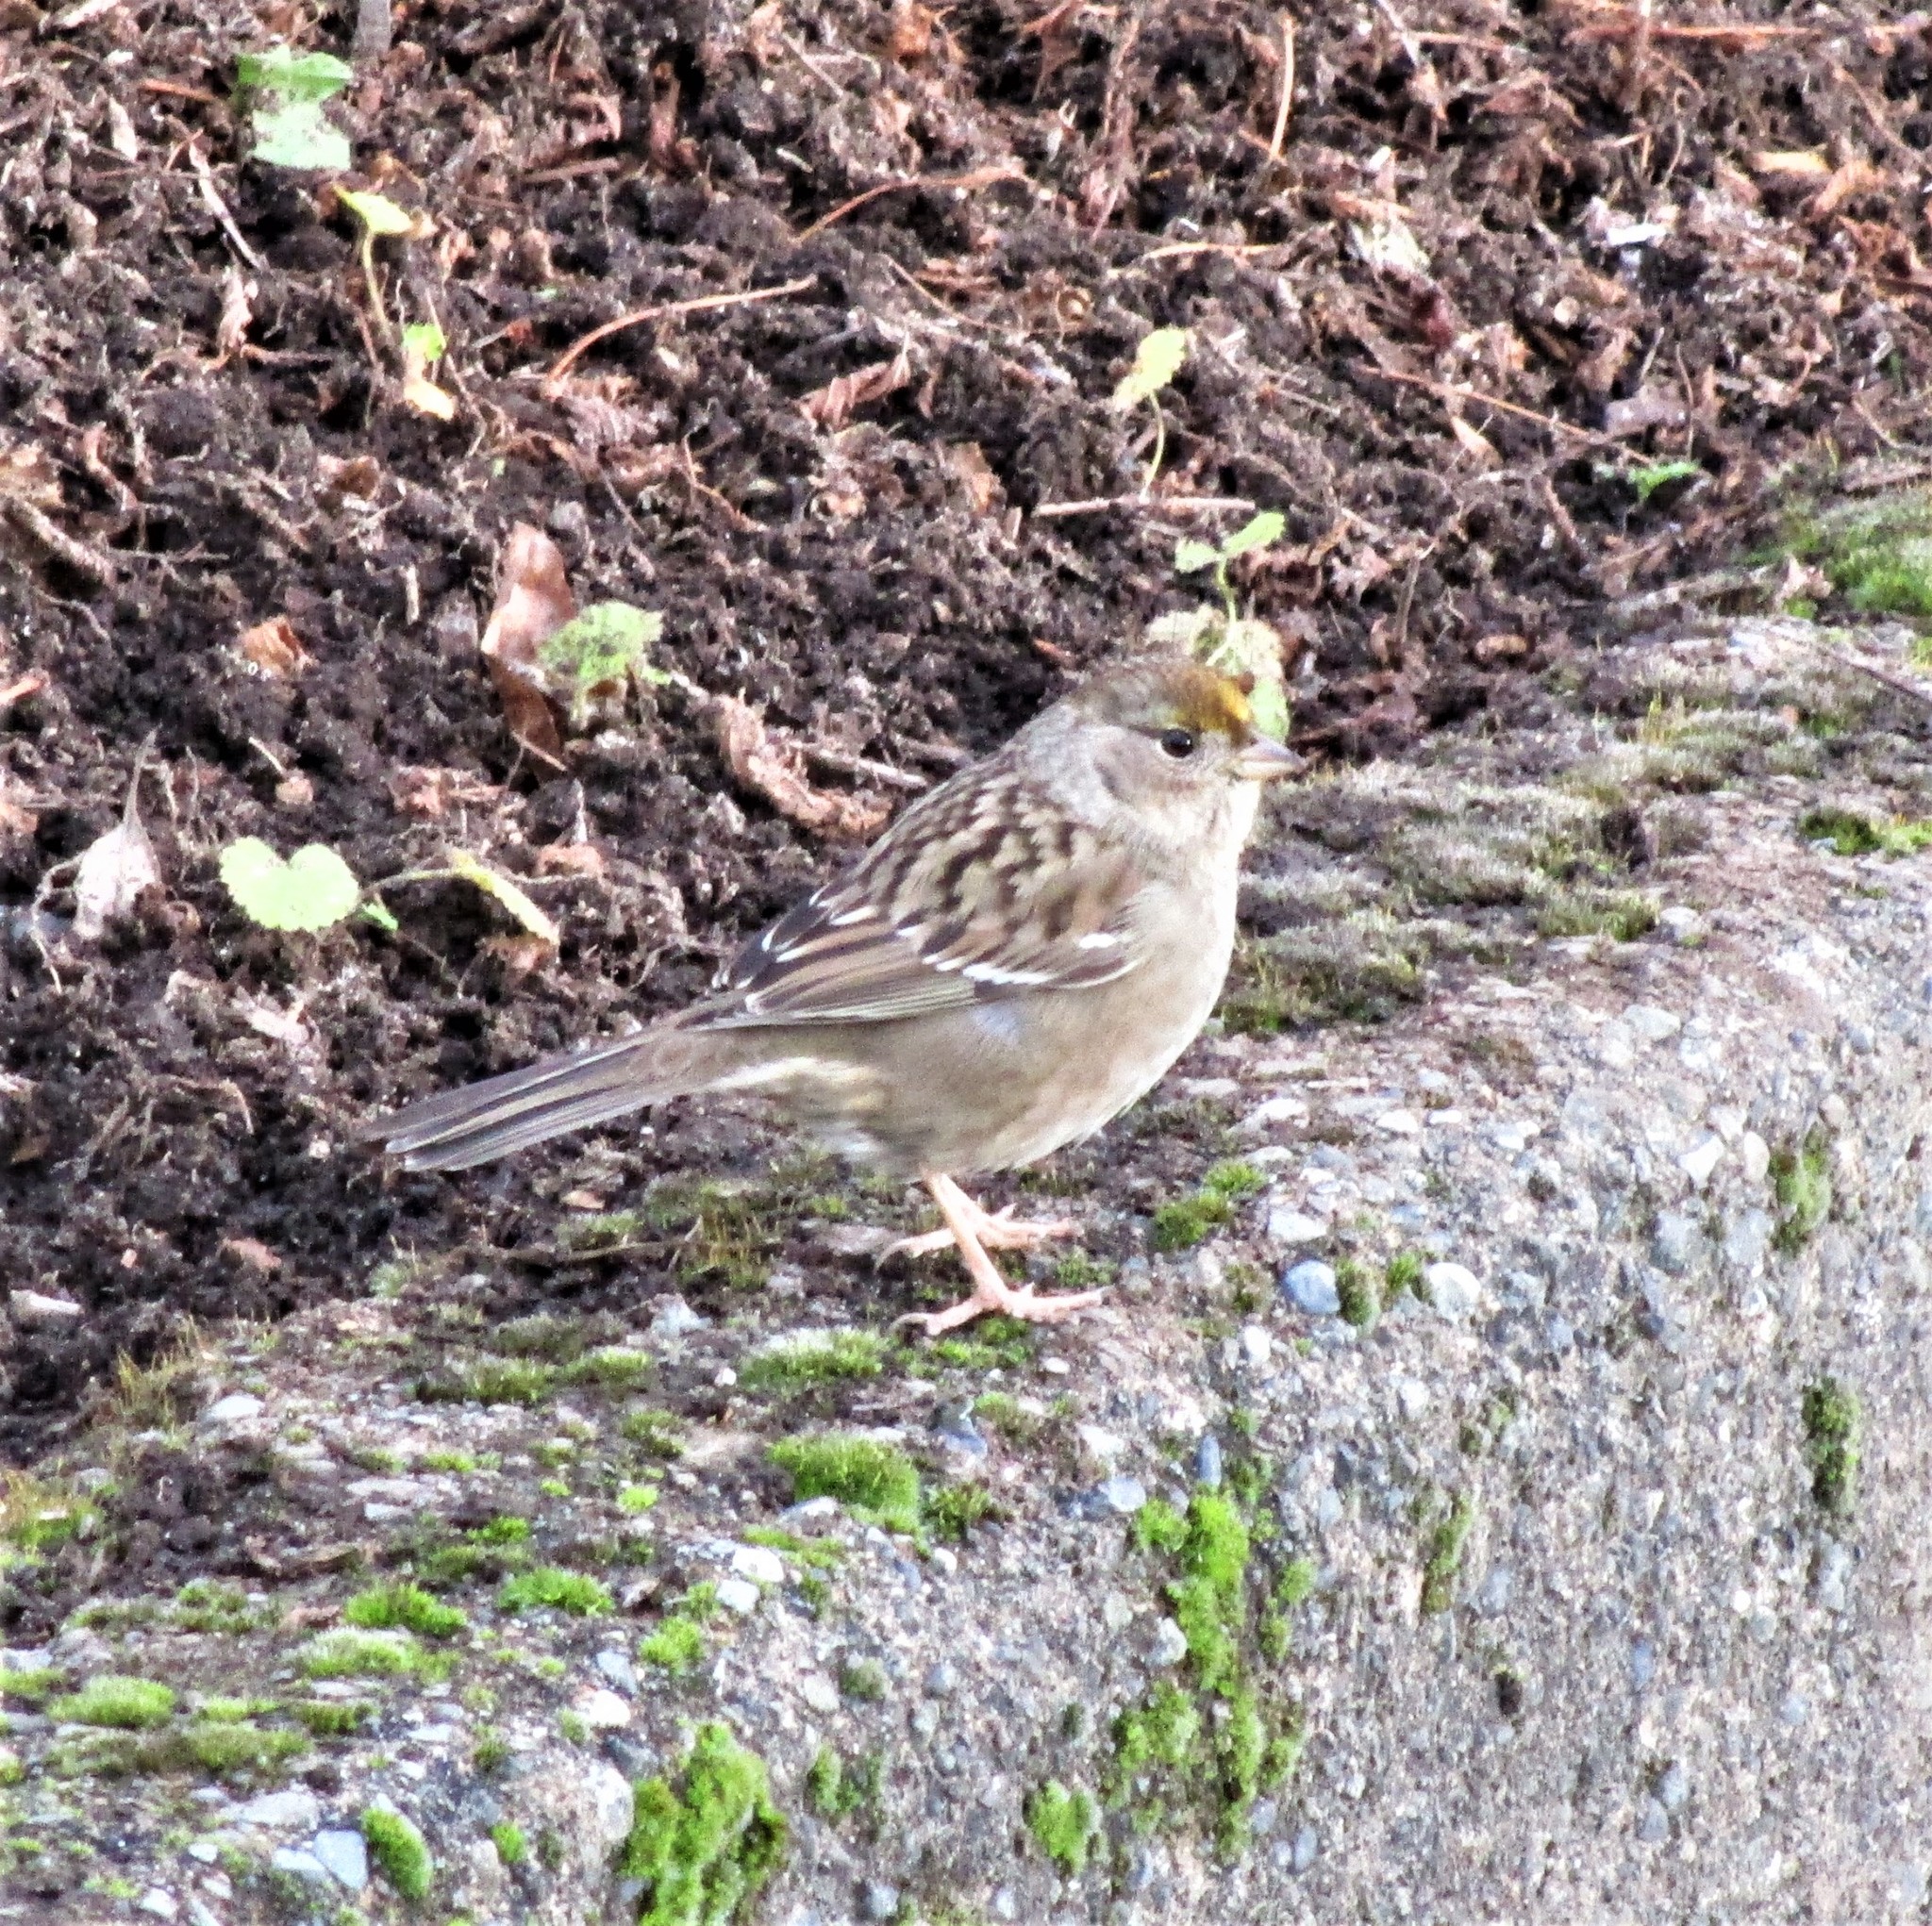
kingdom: Animalia
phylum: Chordata
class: Aves
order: Passeriformes
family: Passerellidae
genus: Zonotrichia
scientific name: Zonotrichia atricapilla
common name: Golden-crowned sparrow
